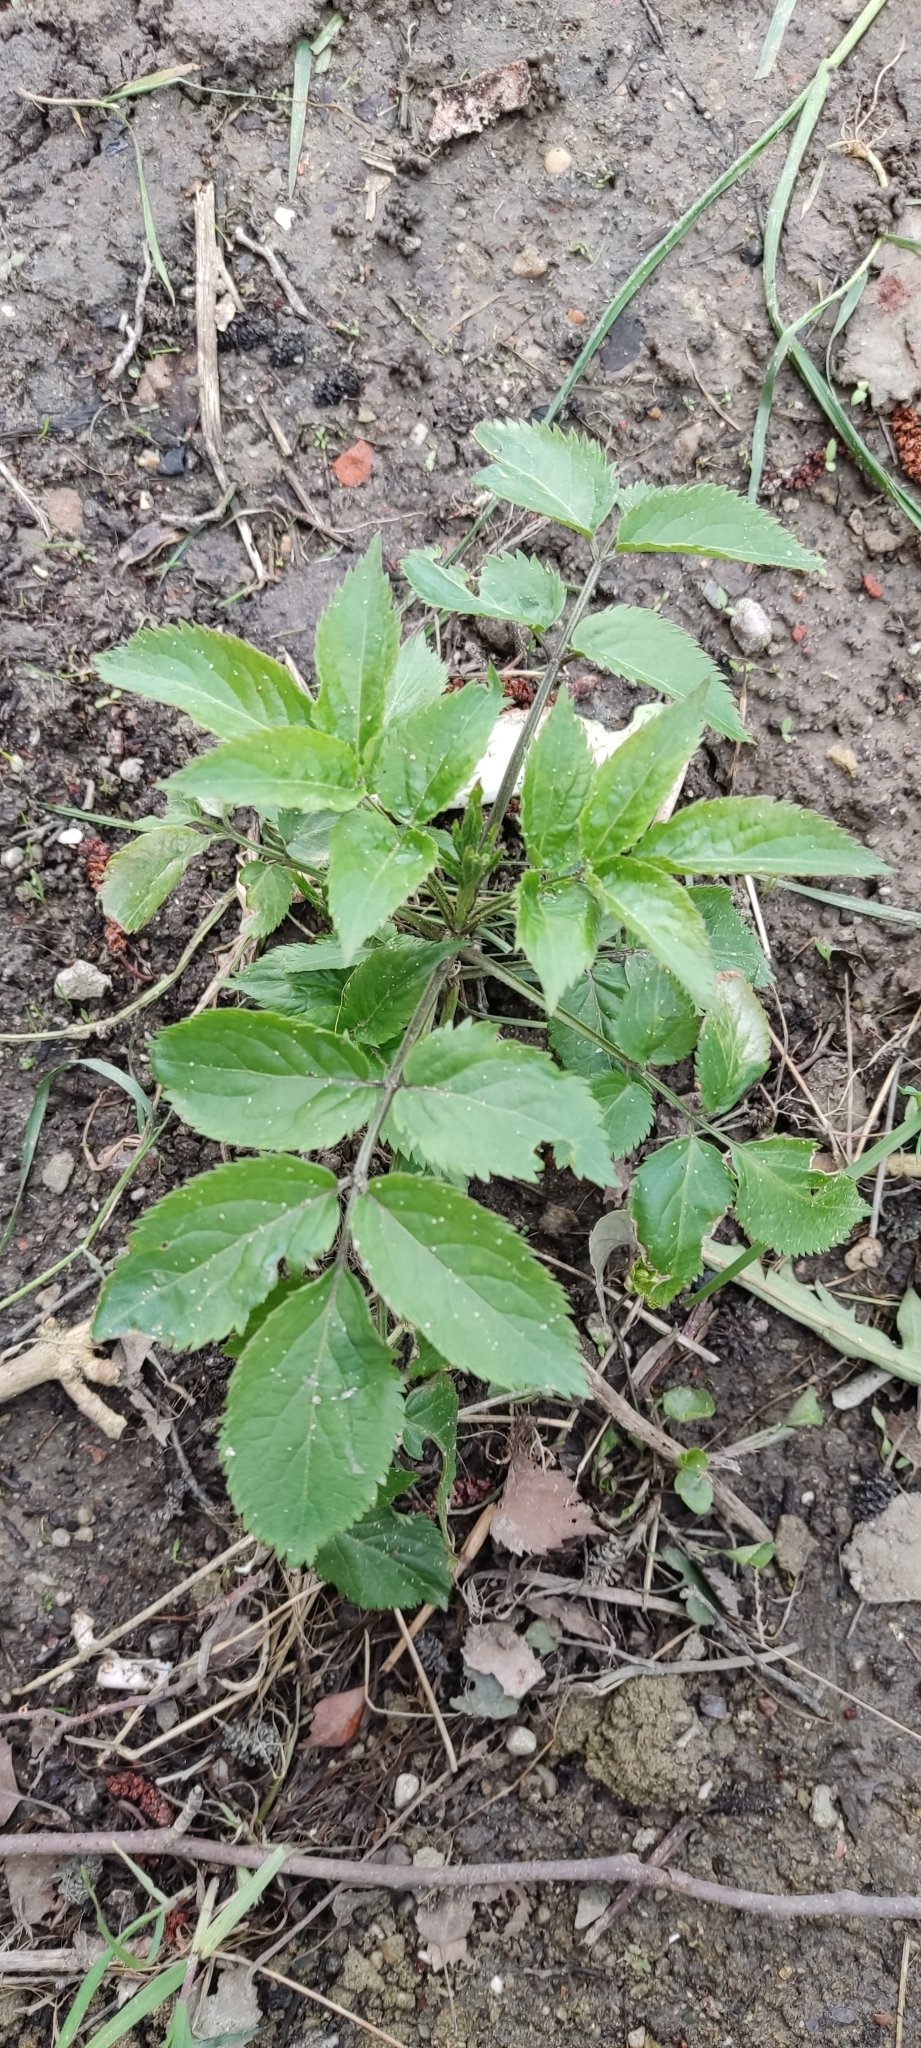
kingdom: Plantae
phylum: Tracheophyta
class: Magnoliopsida
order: Dipsacales
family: Viburnaceae
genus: Sambucus
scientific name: Sambucus nigra
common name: Elder
